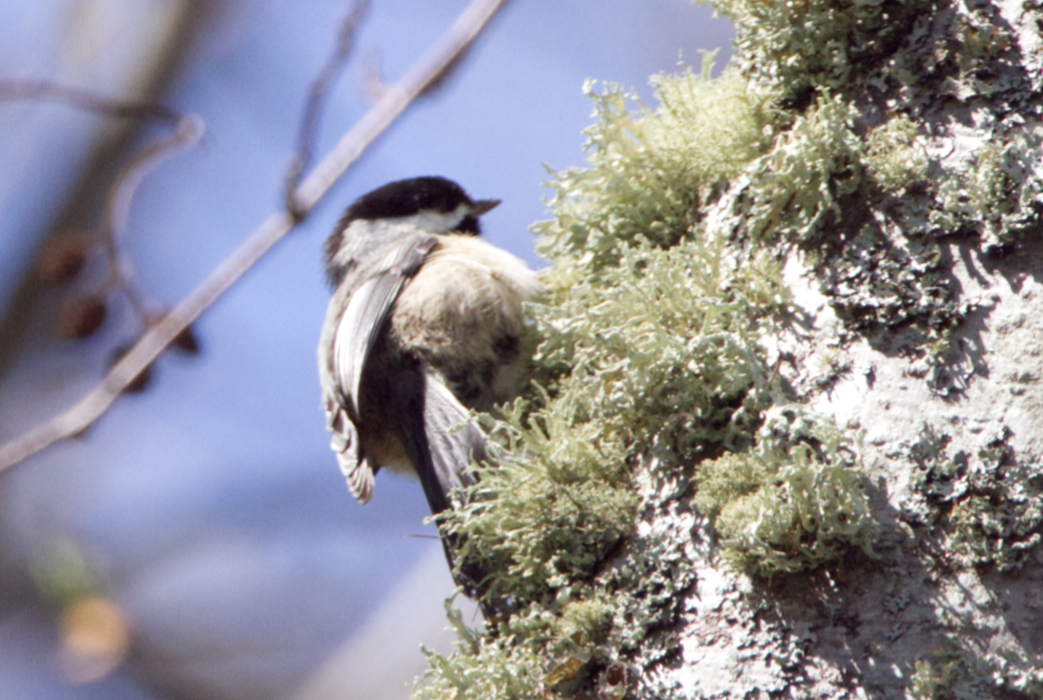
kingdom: Animalia
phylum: Chordata
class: Aves
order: Passeriformes
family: Paridae
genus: Poecile
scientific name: Poecile atricapillus
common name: Black-capped chickadee
